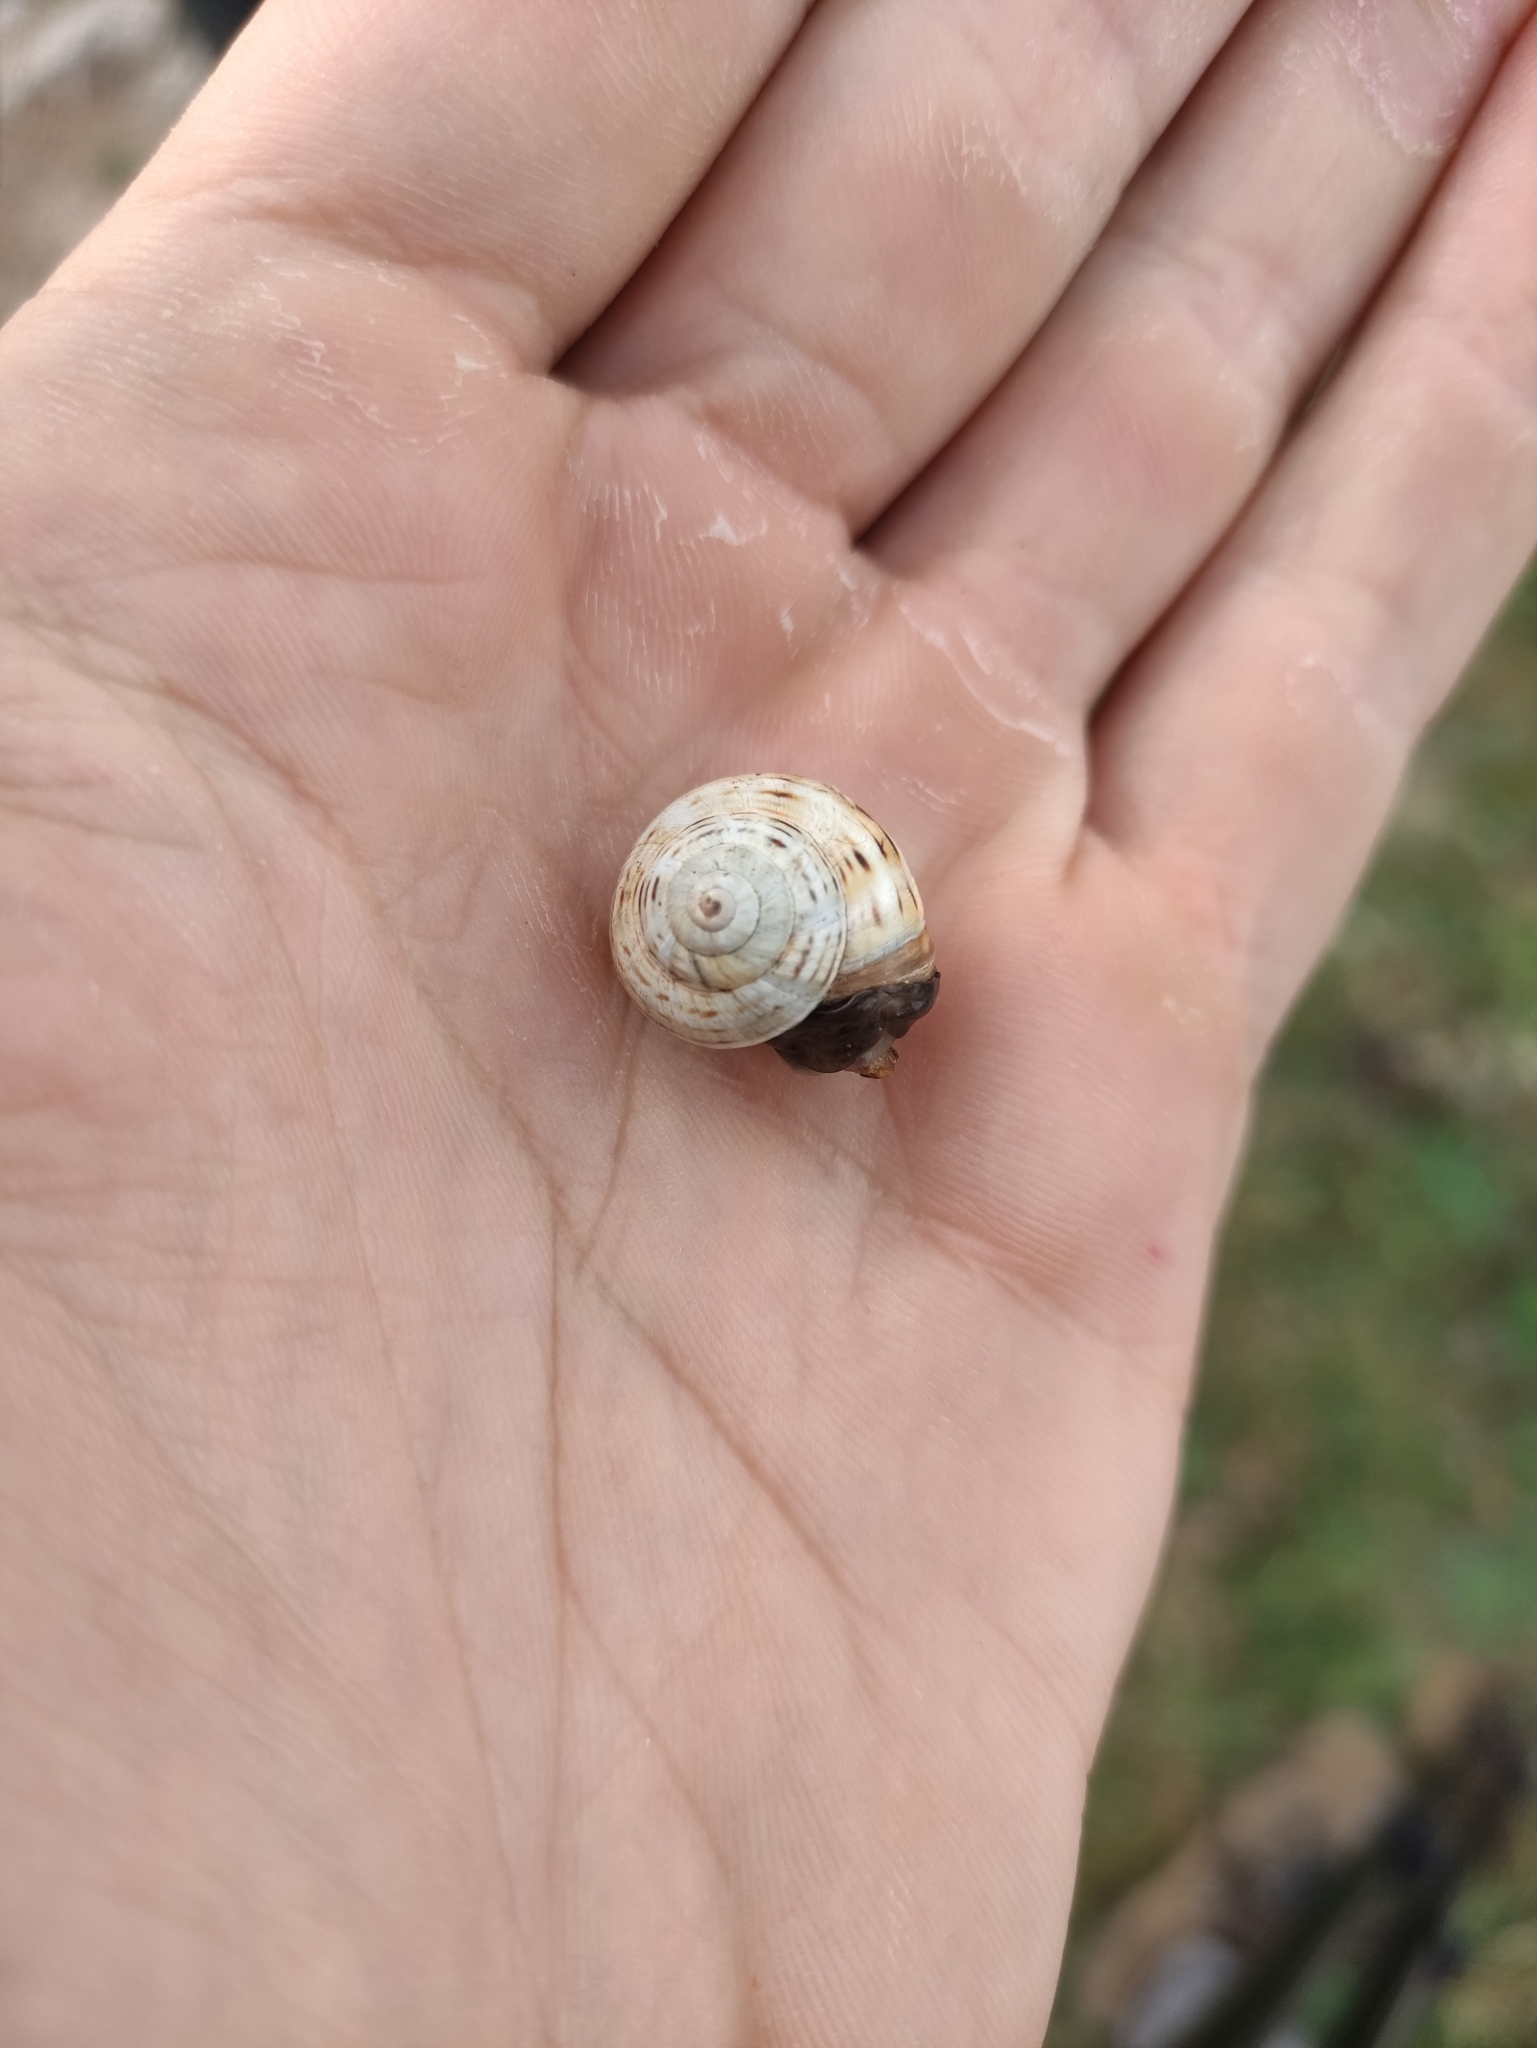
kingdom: Animalia
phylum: Mollusca
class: Gastropoda
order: Stylommatophora
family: Helicidae
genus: Theba
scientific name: Theba pisana
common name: White snail
